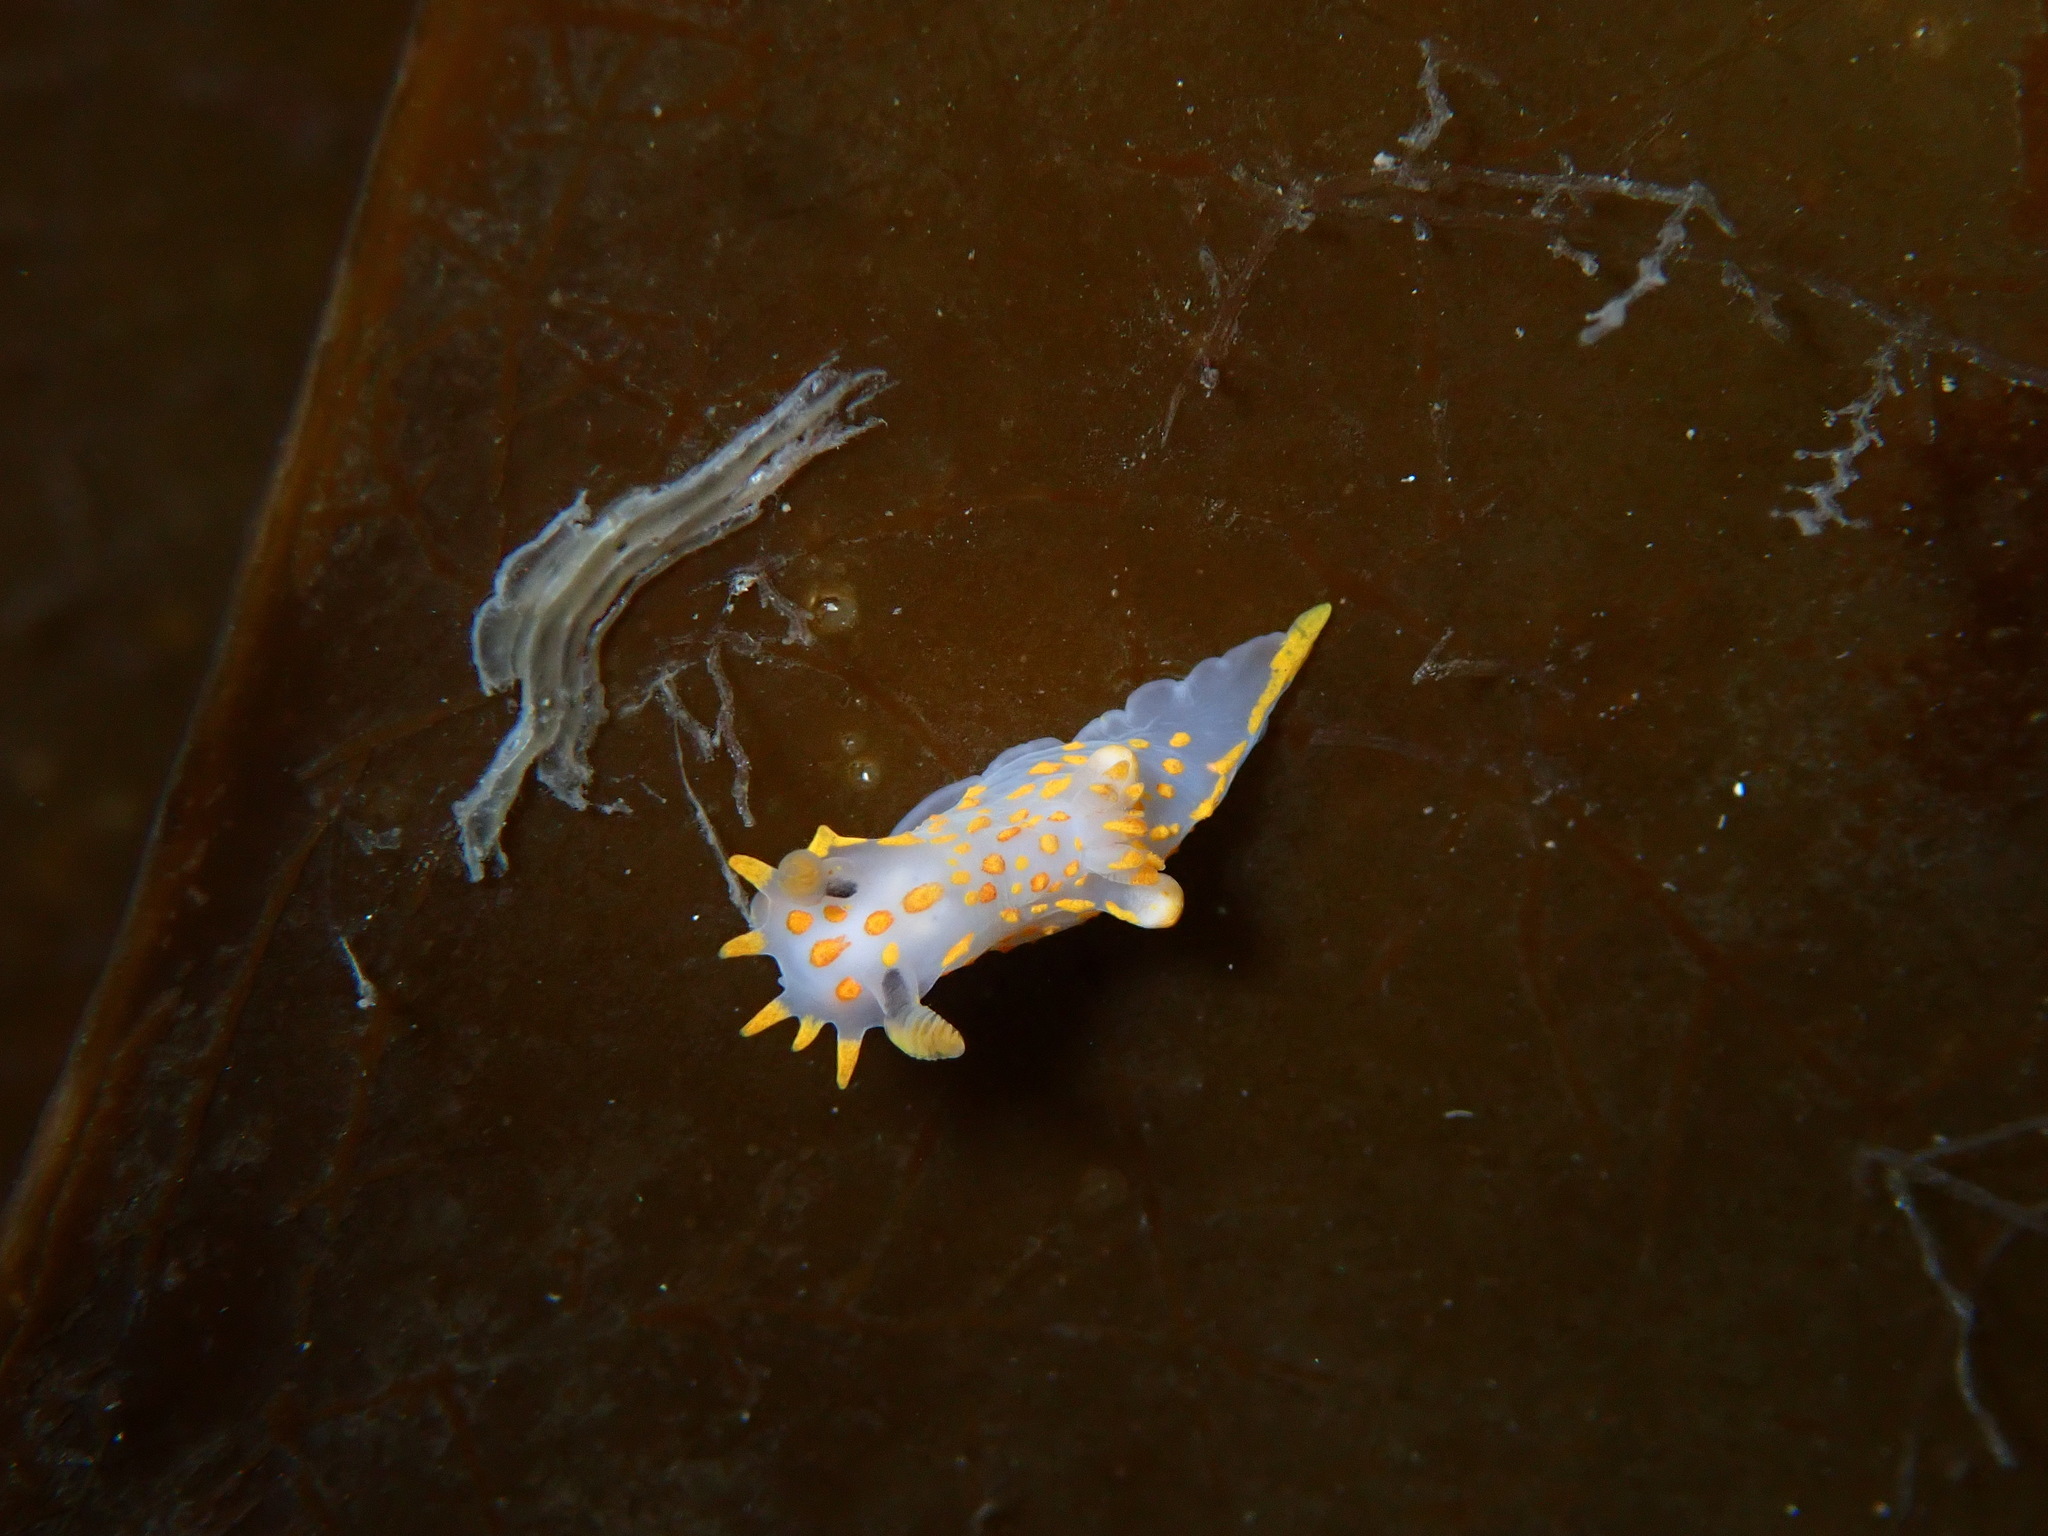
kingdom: Animalia
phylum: Mollusca
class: Gastropoda
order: Nudibranchia
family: Polyceridae
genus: Polycera
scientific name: Polycera quadrilineata
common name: Four-striped polycera
